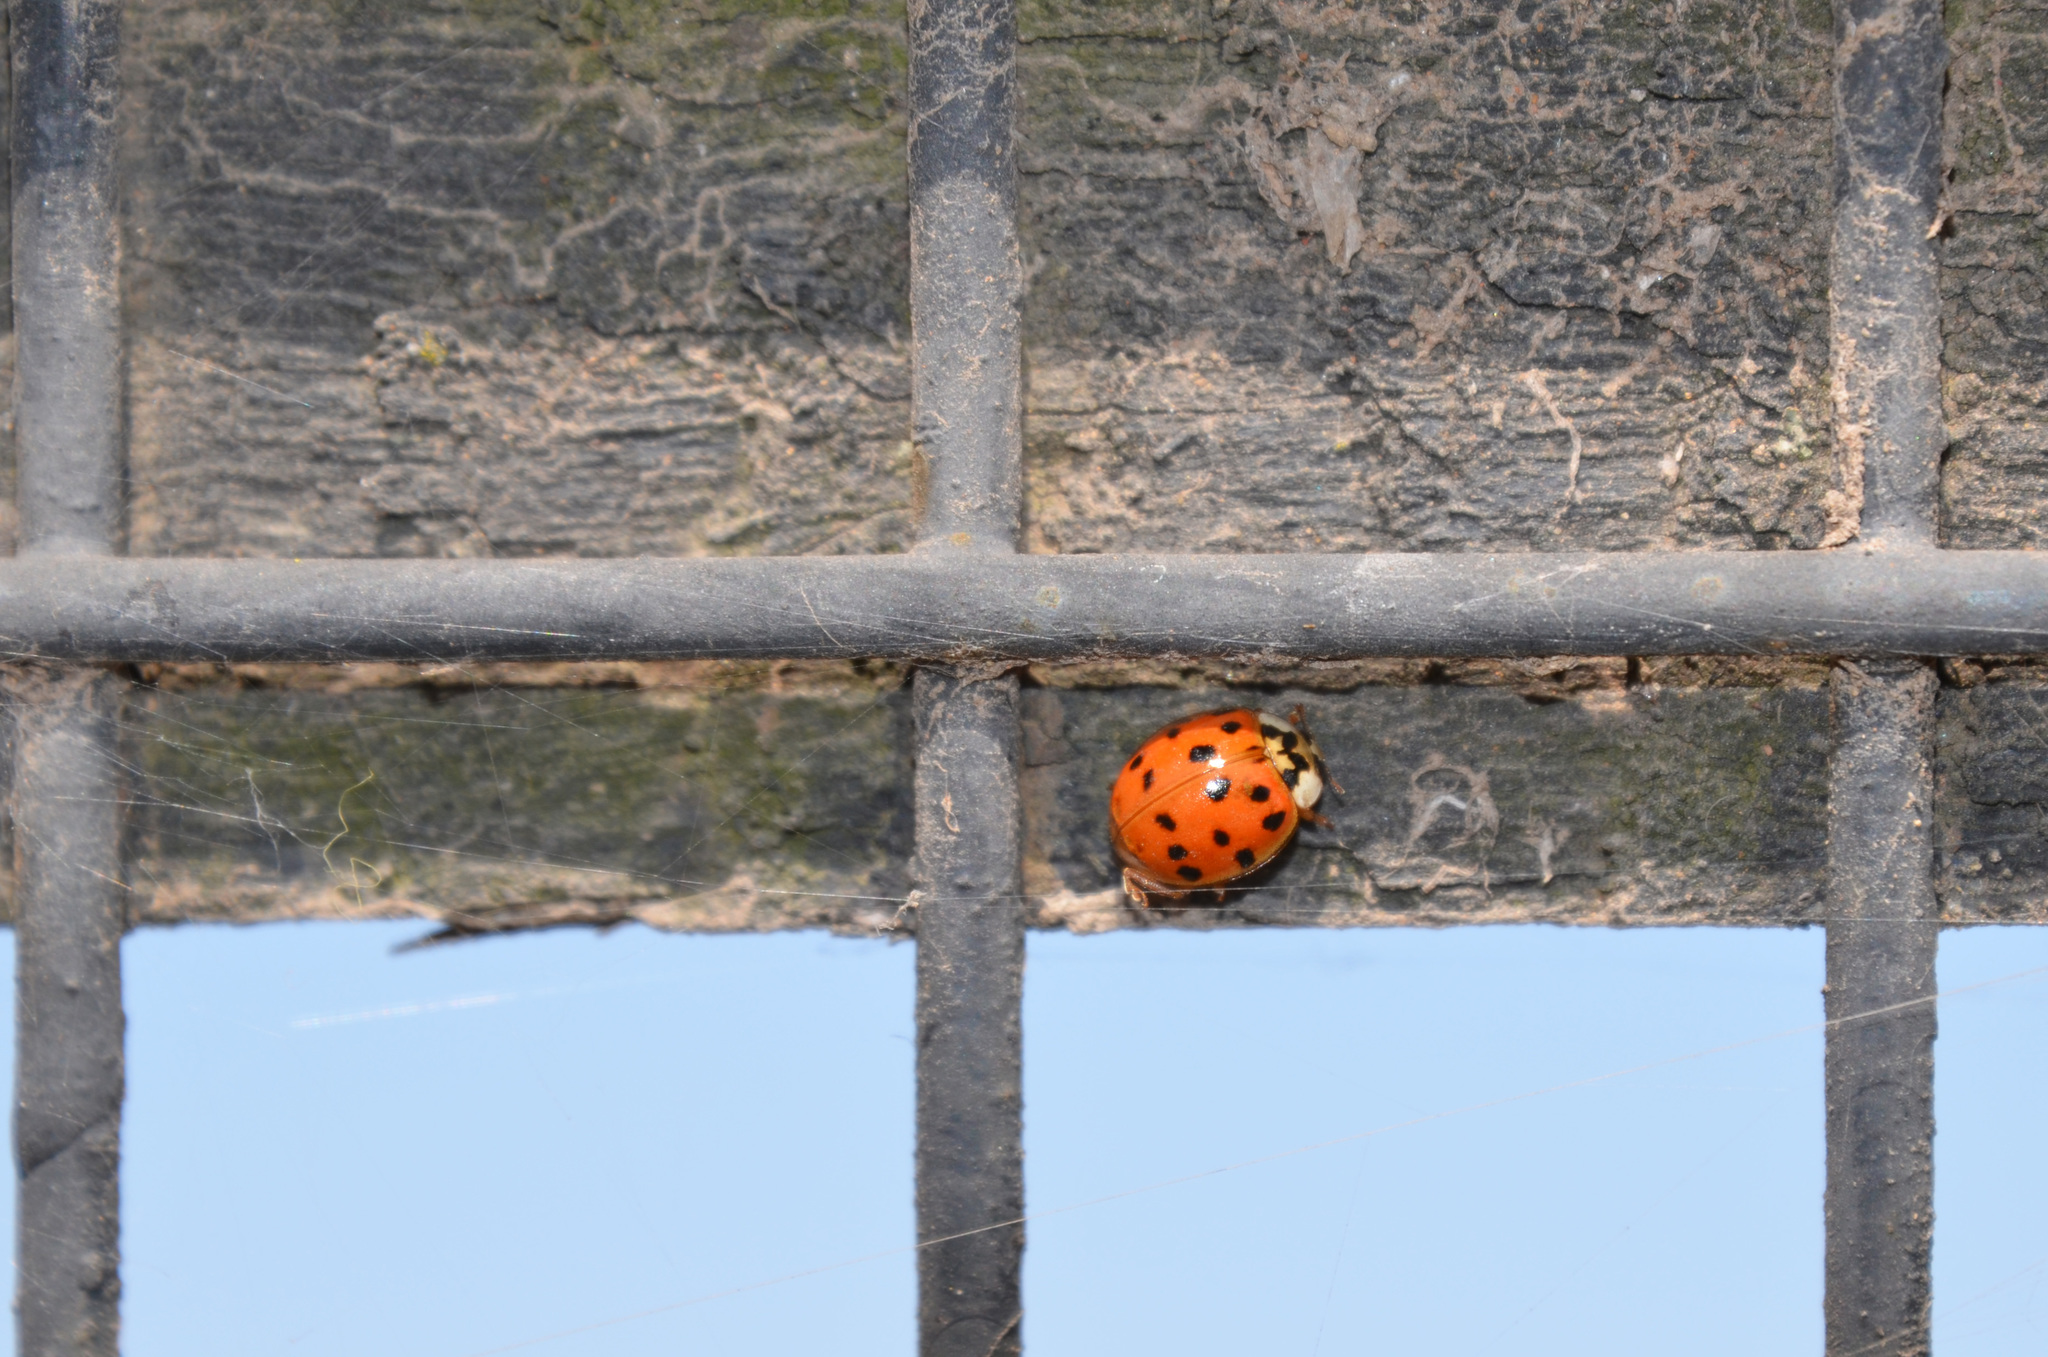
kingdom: Animalia
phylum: Arthropoda
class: Insecta
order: Coleoptera
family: Coccinellidae
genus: Harmonia
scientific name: Harmonia axyridis
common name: Harlequin ladybird
